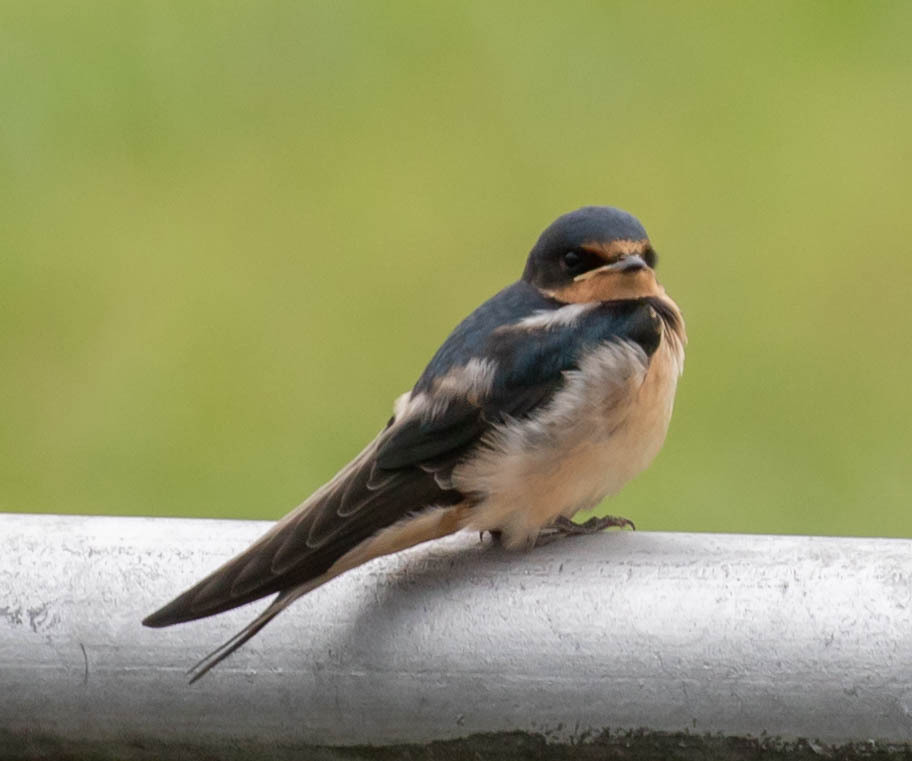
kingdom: Animalia
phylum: Chordata
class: Aves
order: Passeriformes
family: Hirundinidae
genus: Hirundo
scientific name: Hirundo rustica
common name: Barn swallow
